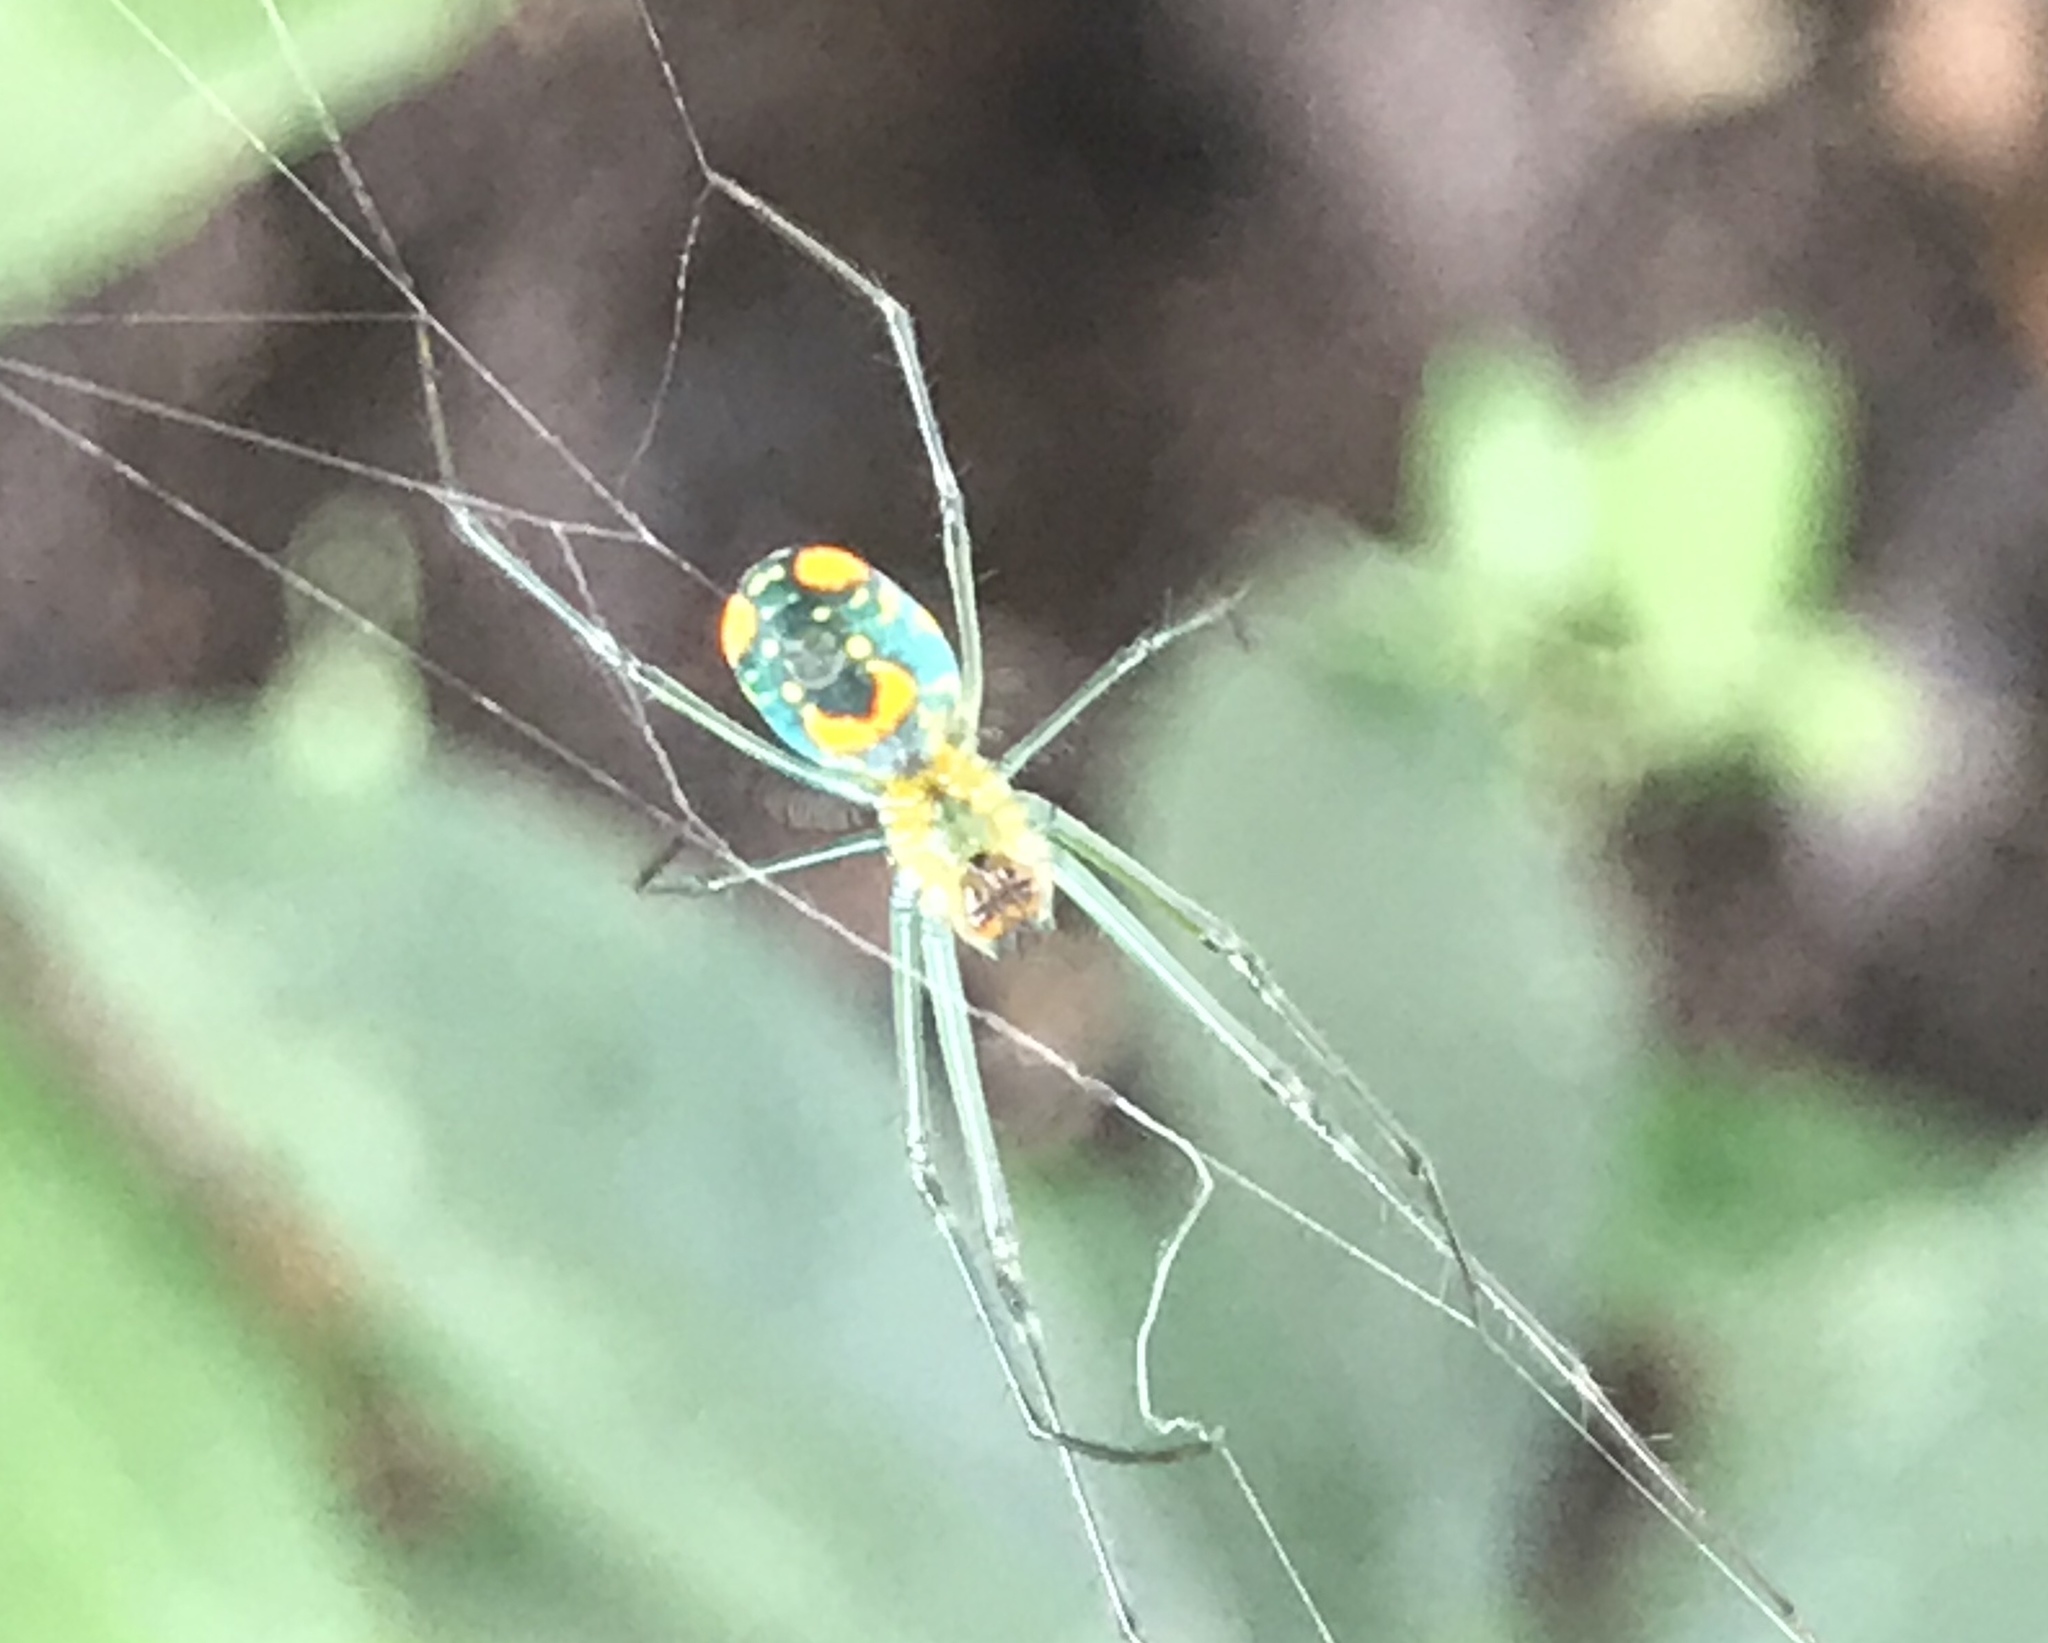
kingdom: Animalia
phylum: Arthropoda
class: Arachnida
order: Araneae
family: Tetragnathidae
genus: Leucauge
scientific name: Leucauge argyrobapta
